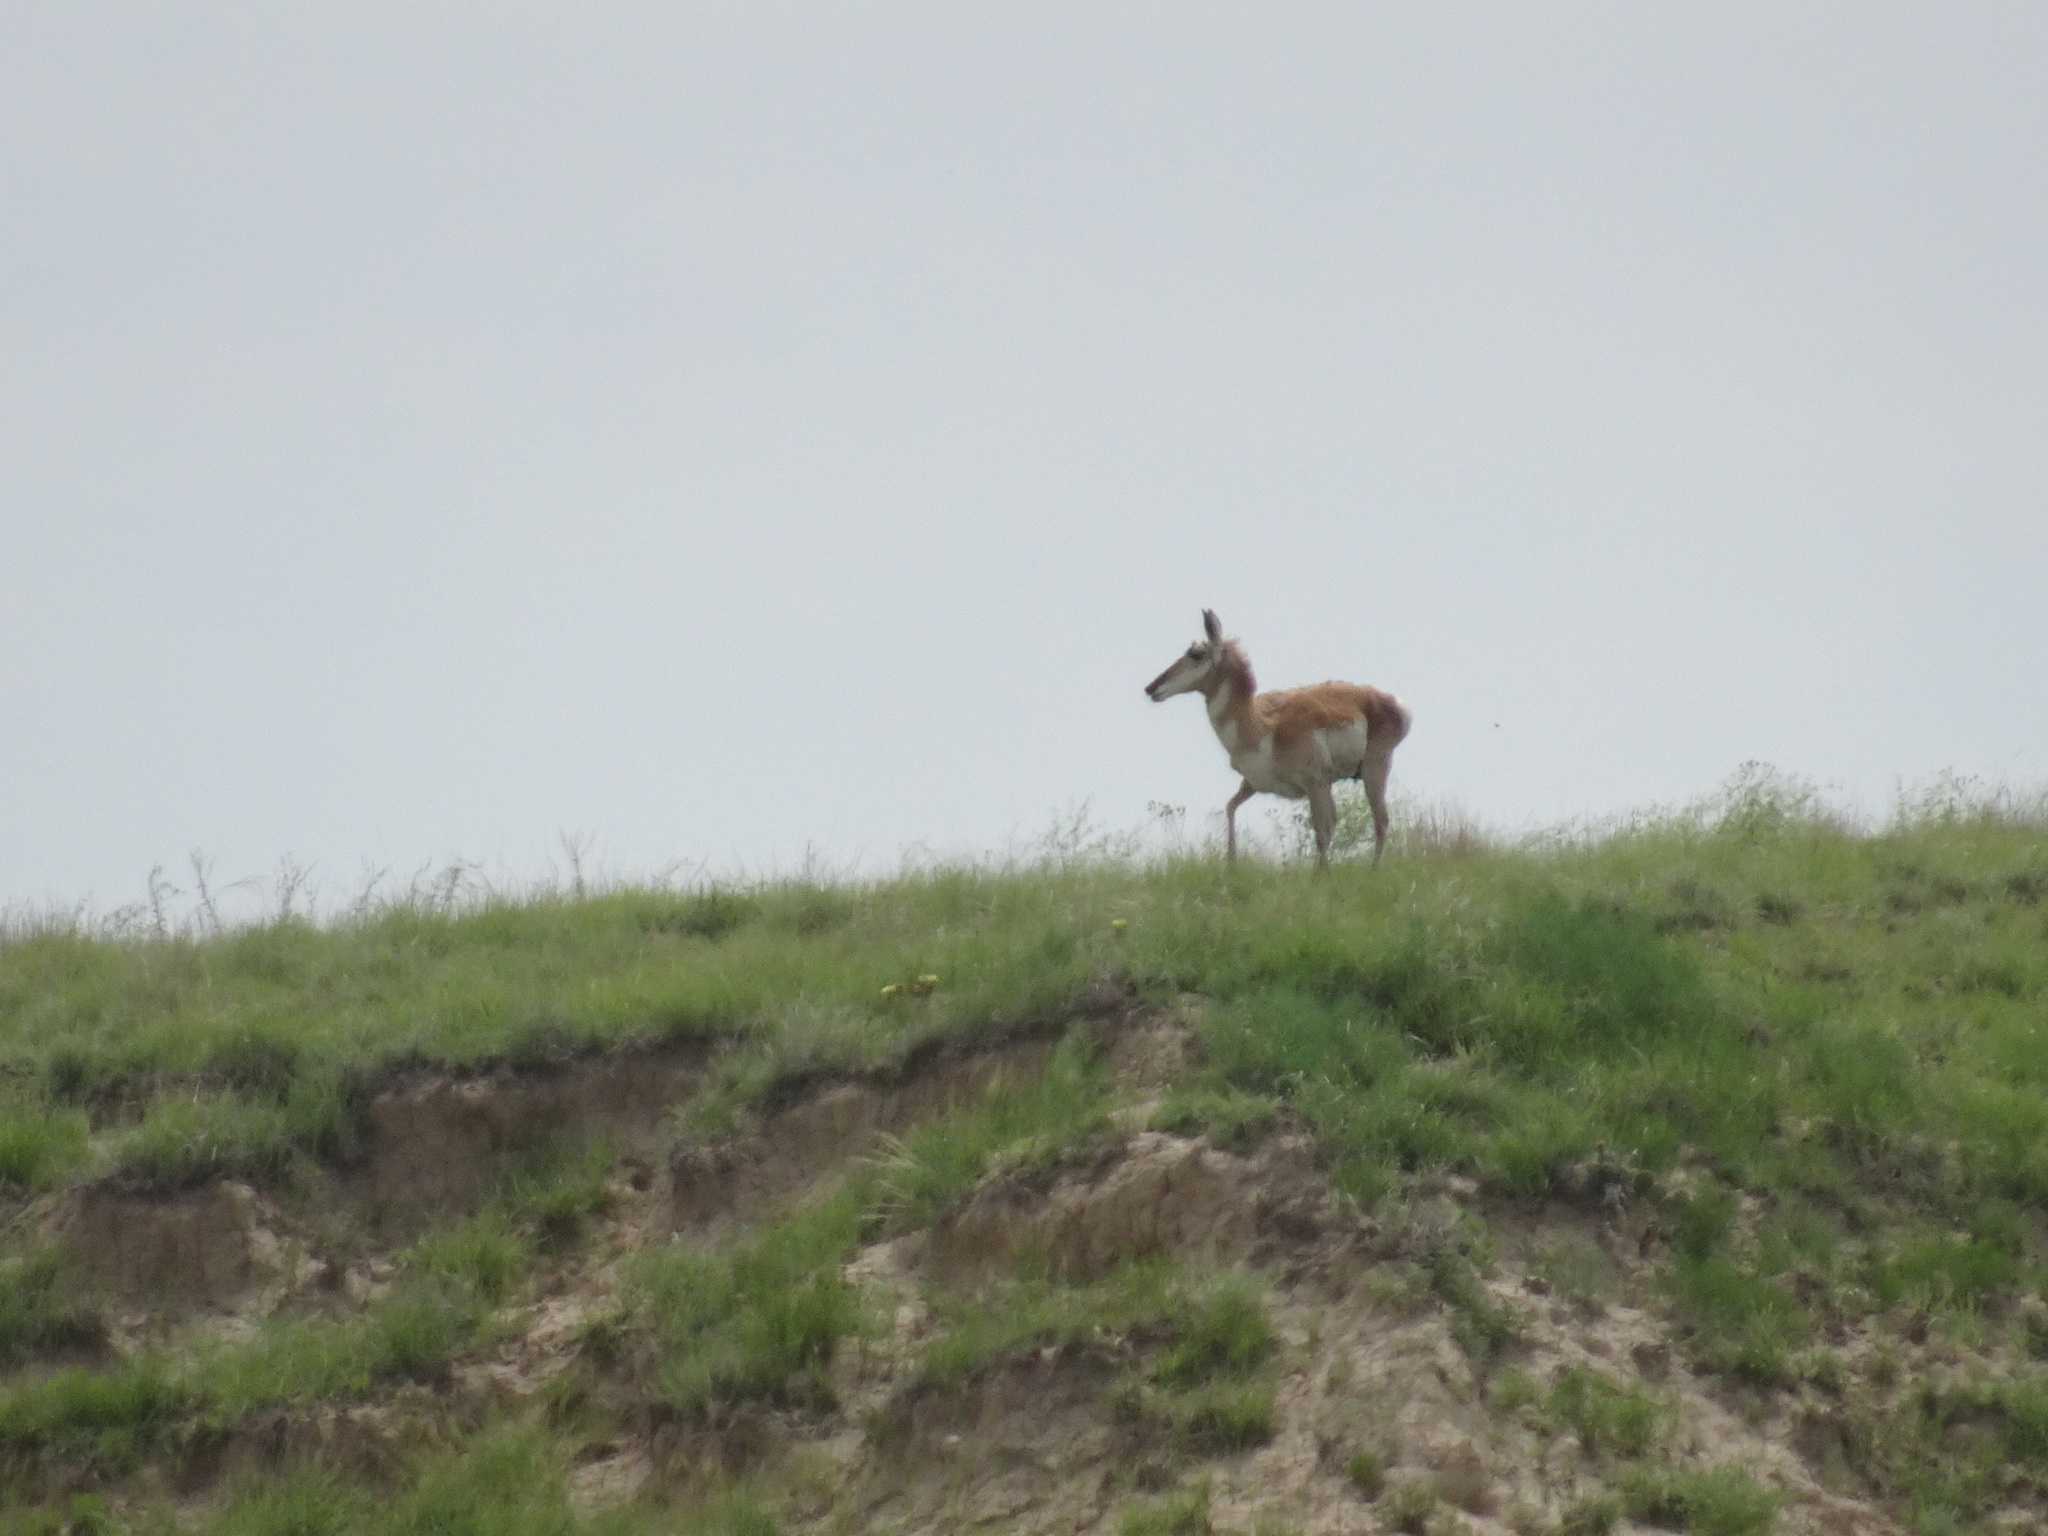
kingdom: Animalia
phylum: Chordata
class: Mammalia
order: Artiodactyla
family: Antilocapridae
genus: Antilocapra
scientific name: Antilocapra americana
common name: Pronghorn
